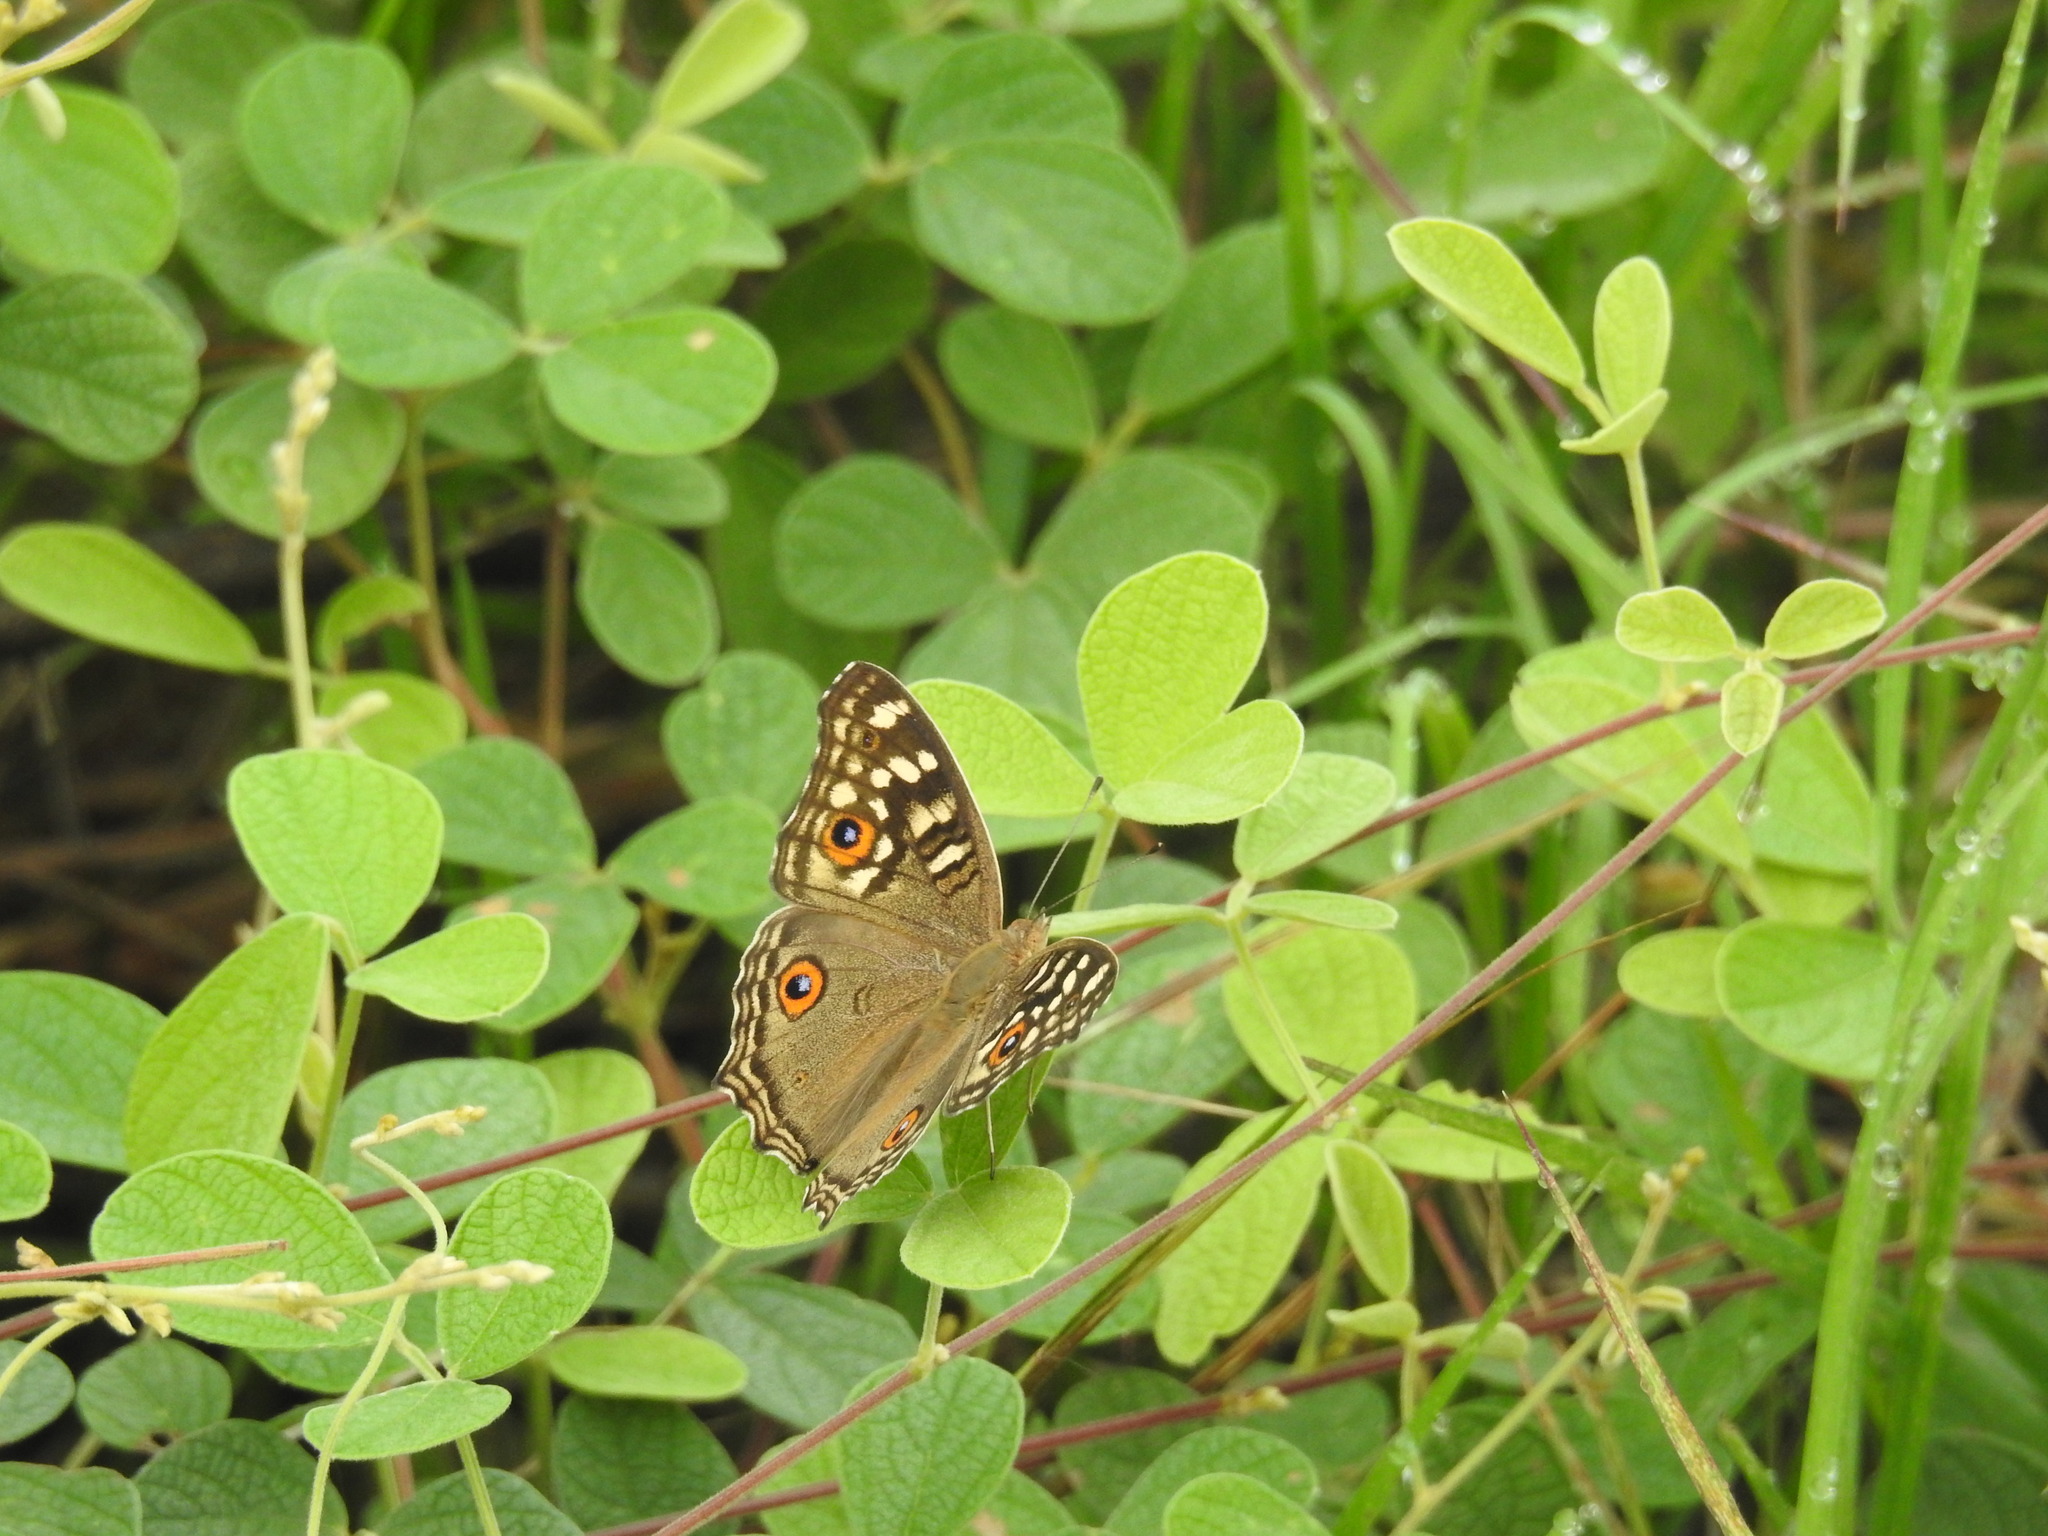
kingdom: Animalia
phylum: Arthropoda
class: Insecta
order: Lepidoptera
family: Nymphalidae
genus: Junonia
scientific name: Junonia lemonias
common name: Lemon pansy
